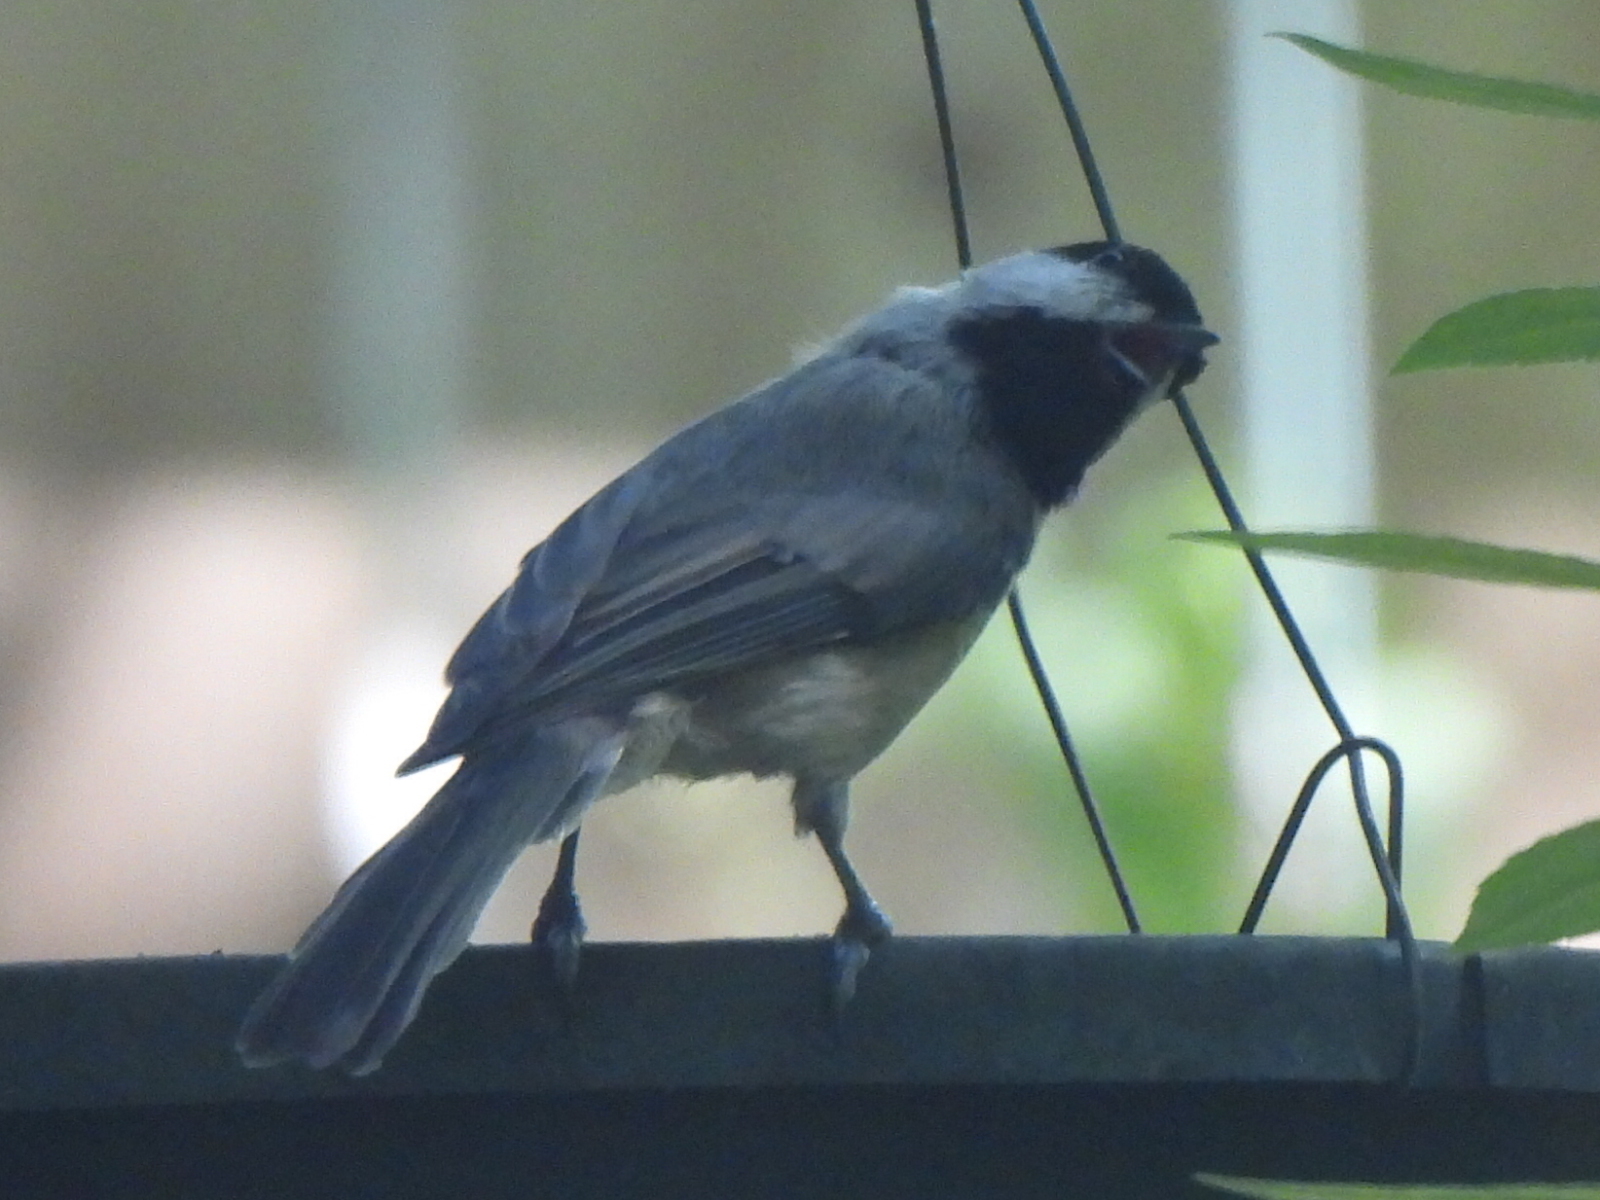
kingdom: Animalia
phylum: Chordata
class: Aves
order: Passeriformes
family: Paridae
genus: Poecile
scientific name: Poecile carolinensis
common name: Carolina chickadee
